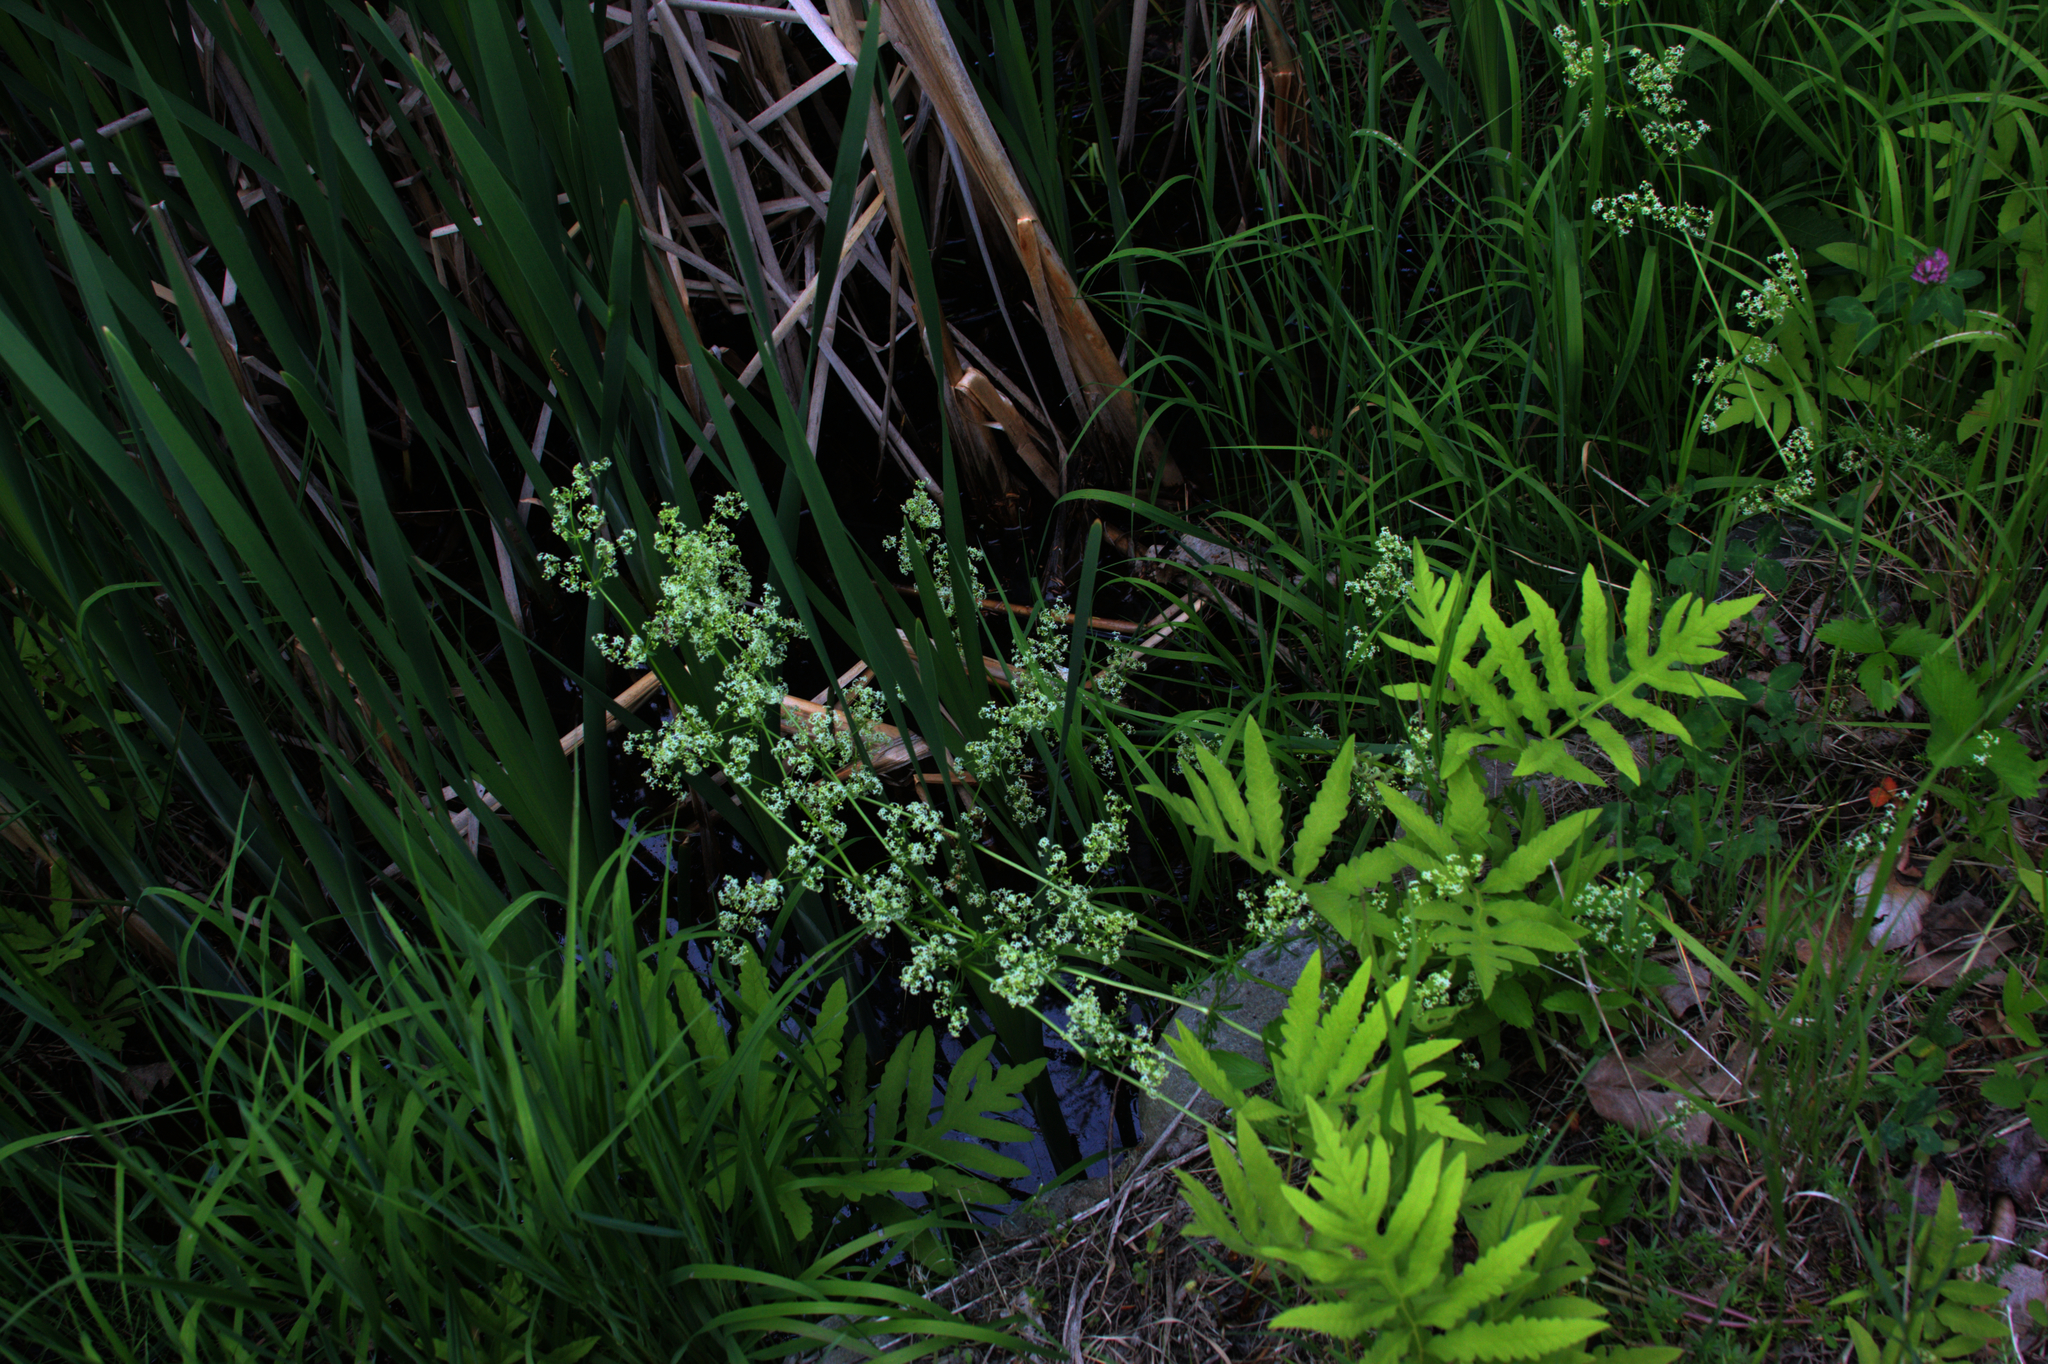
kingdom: Plantae
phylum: Tracheophyta
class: Polypodiopsida
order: Polypodiales
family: Onocleaceae
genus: Onoclea
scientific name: Onoclea sensibilis
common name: Sensitive fern
